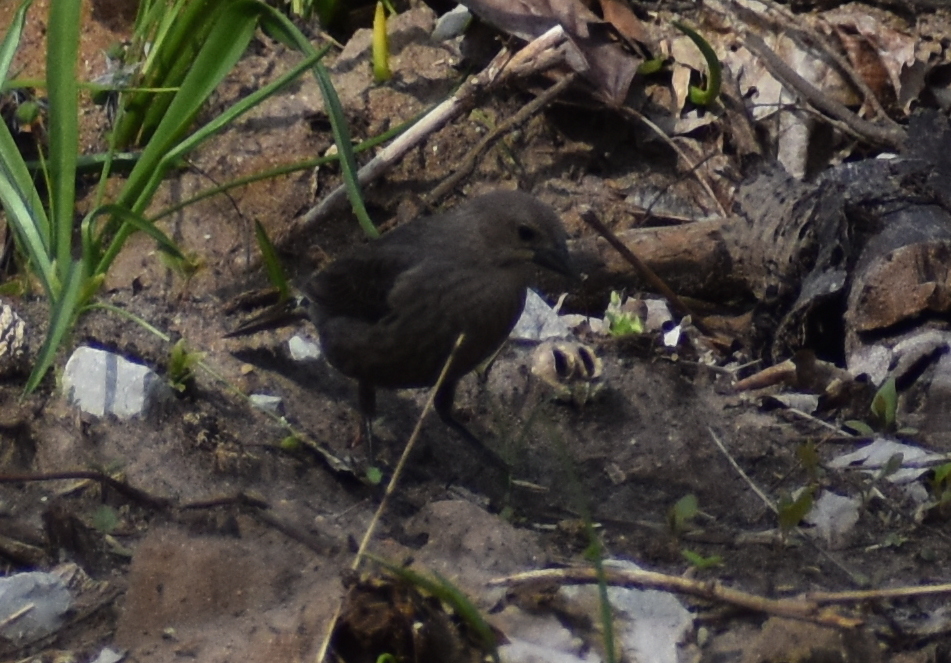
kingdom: Animalia
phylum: Chordata
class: Aves
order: Passeriformes
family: Icteridae
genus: Molothrus
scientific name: Molothrus ater
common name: Brown-headed cowbird
